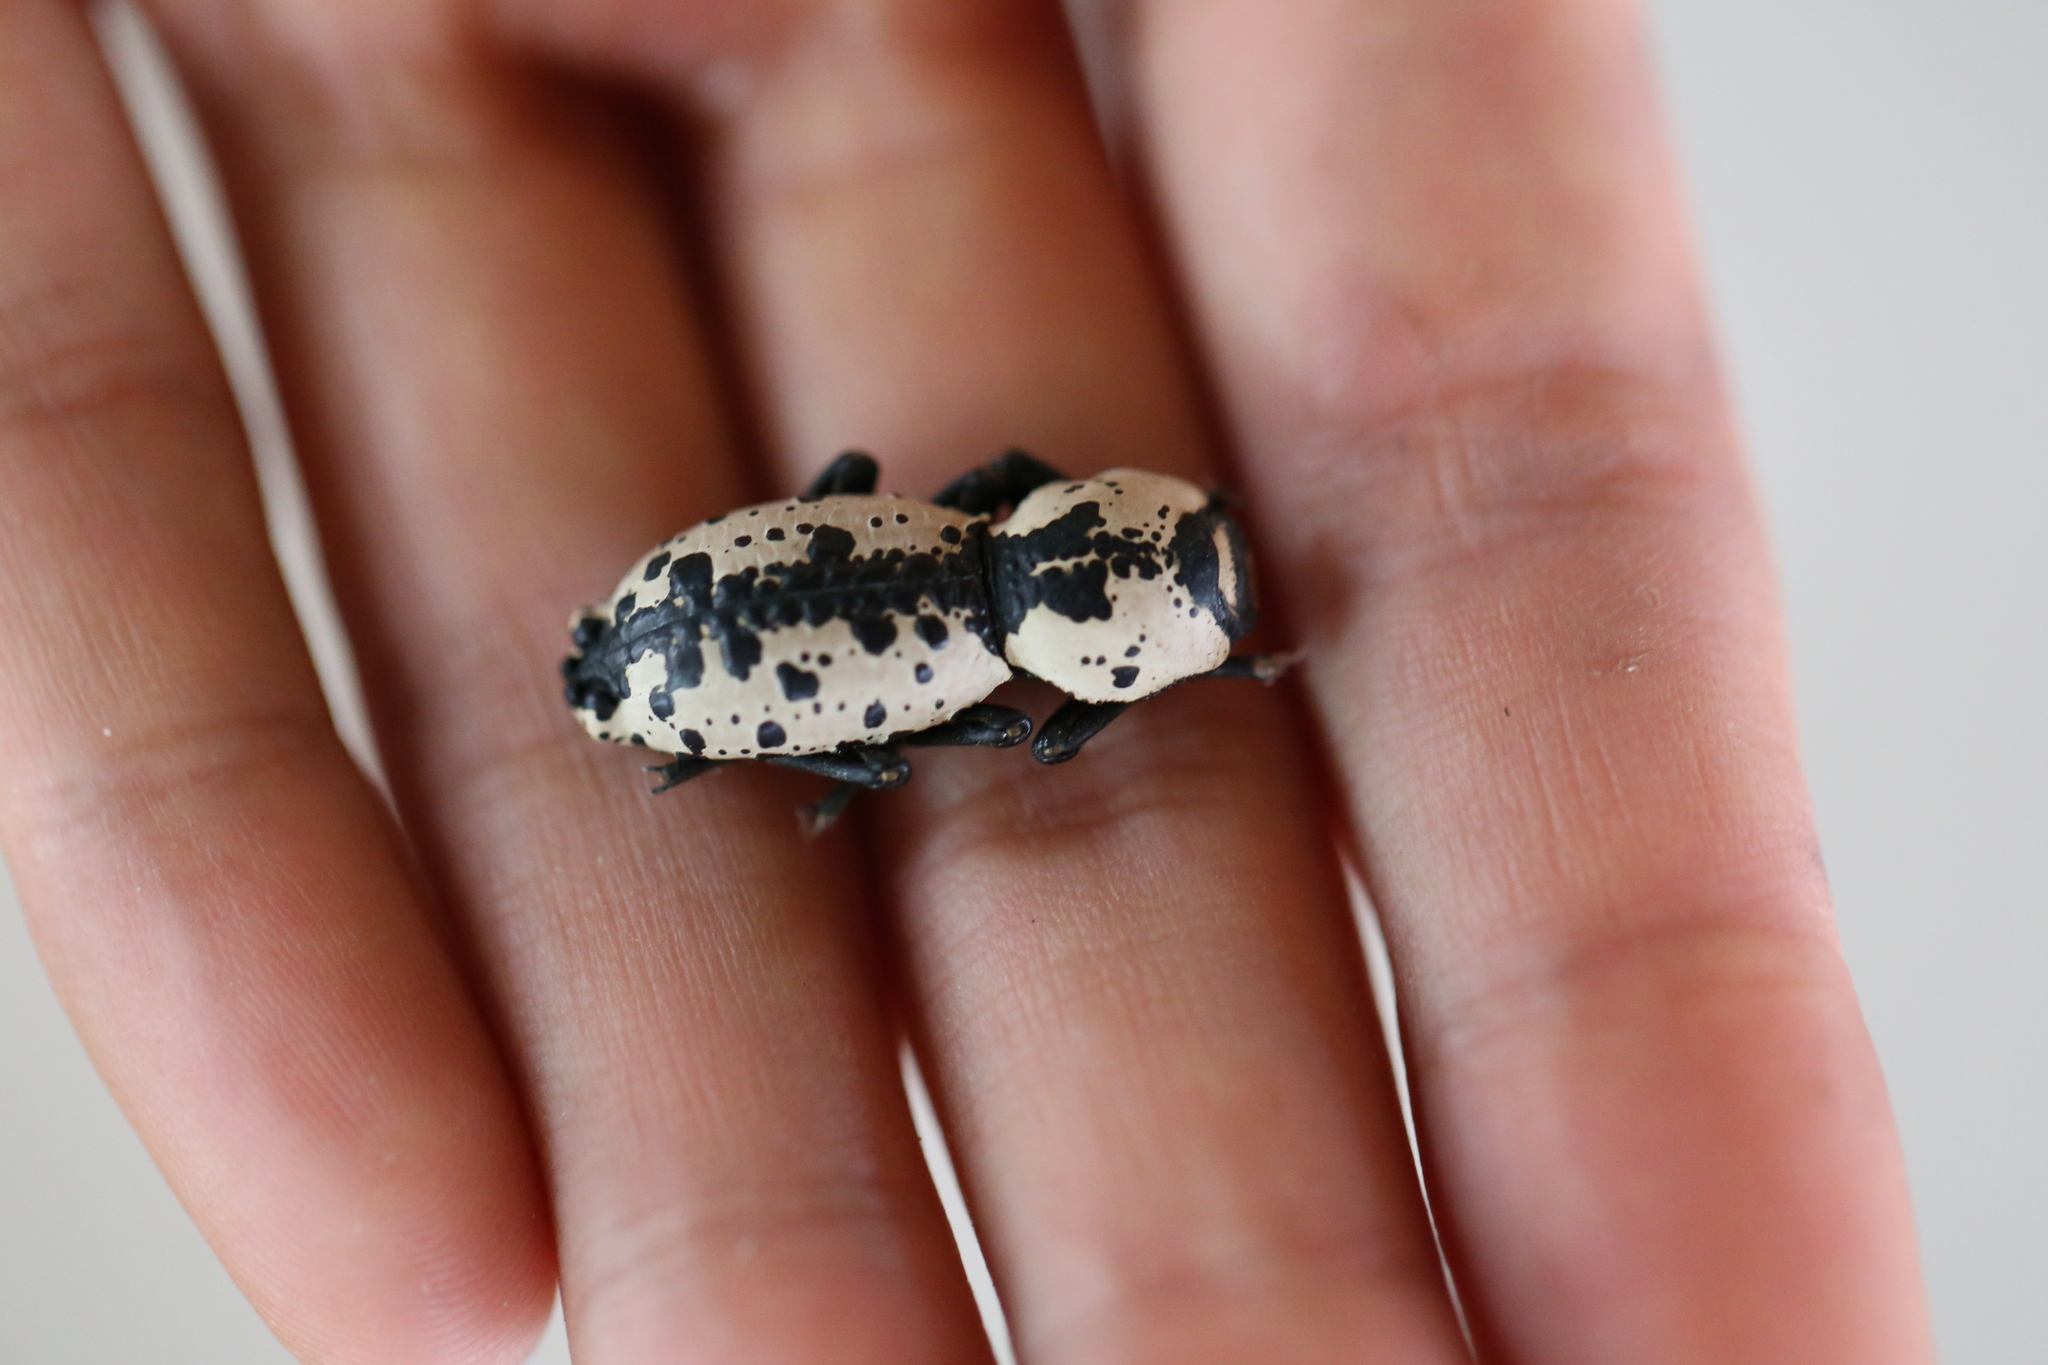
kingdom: Animalia
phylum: Arthropoda
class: Insecta
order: Coleoptera
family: Zopheridae
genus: Zopherus
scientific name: Zopherus nodulosus
